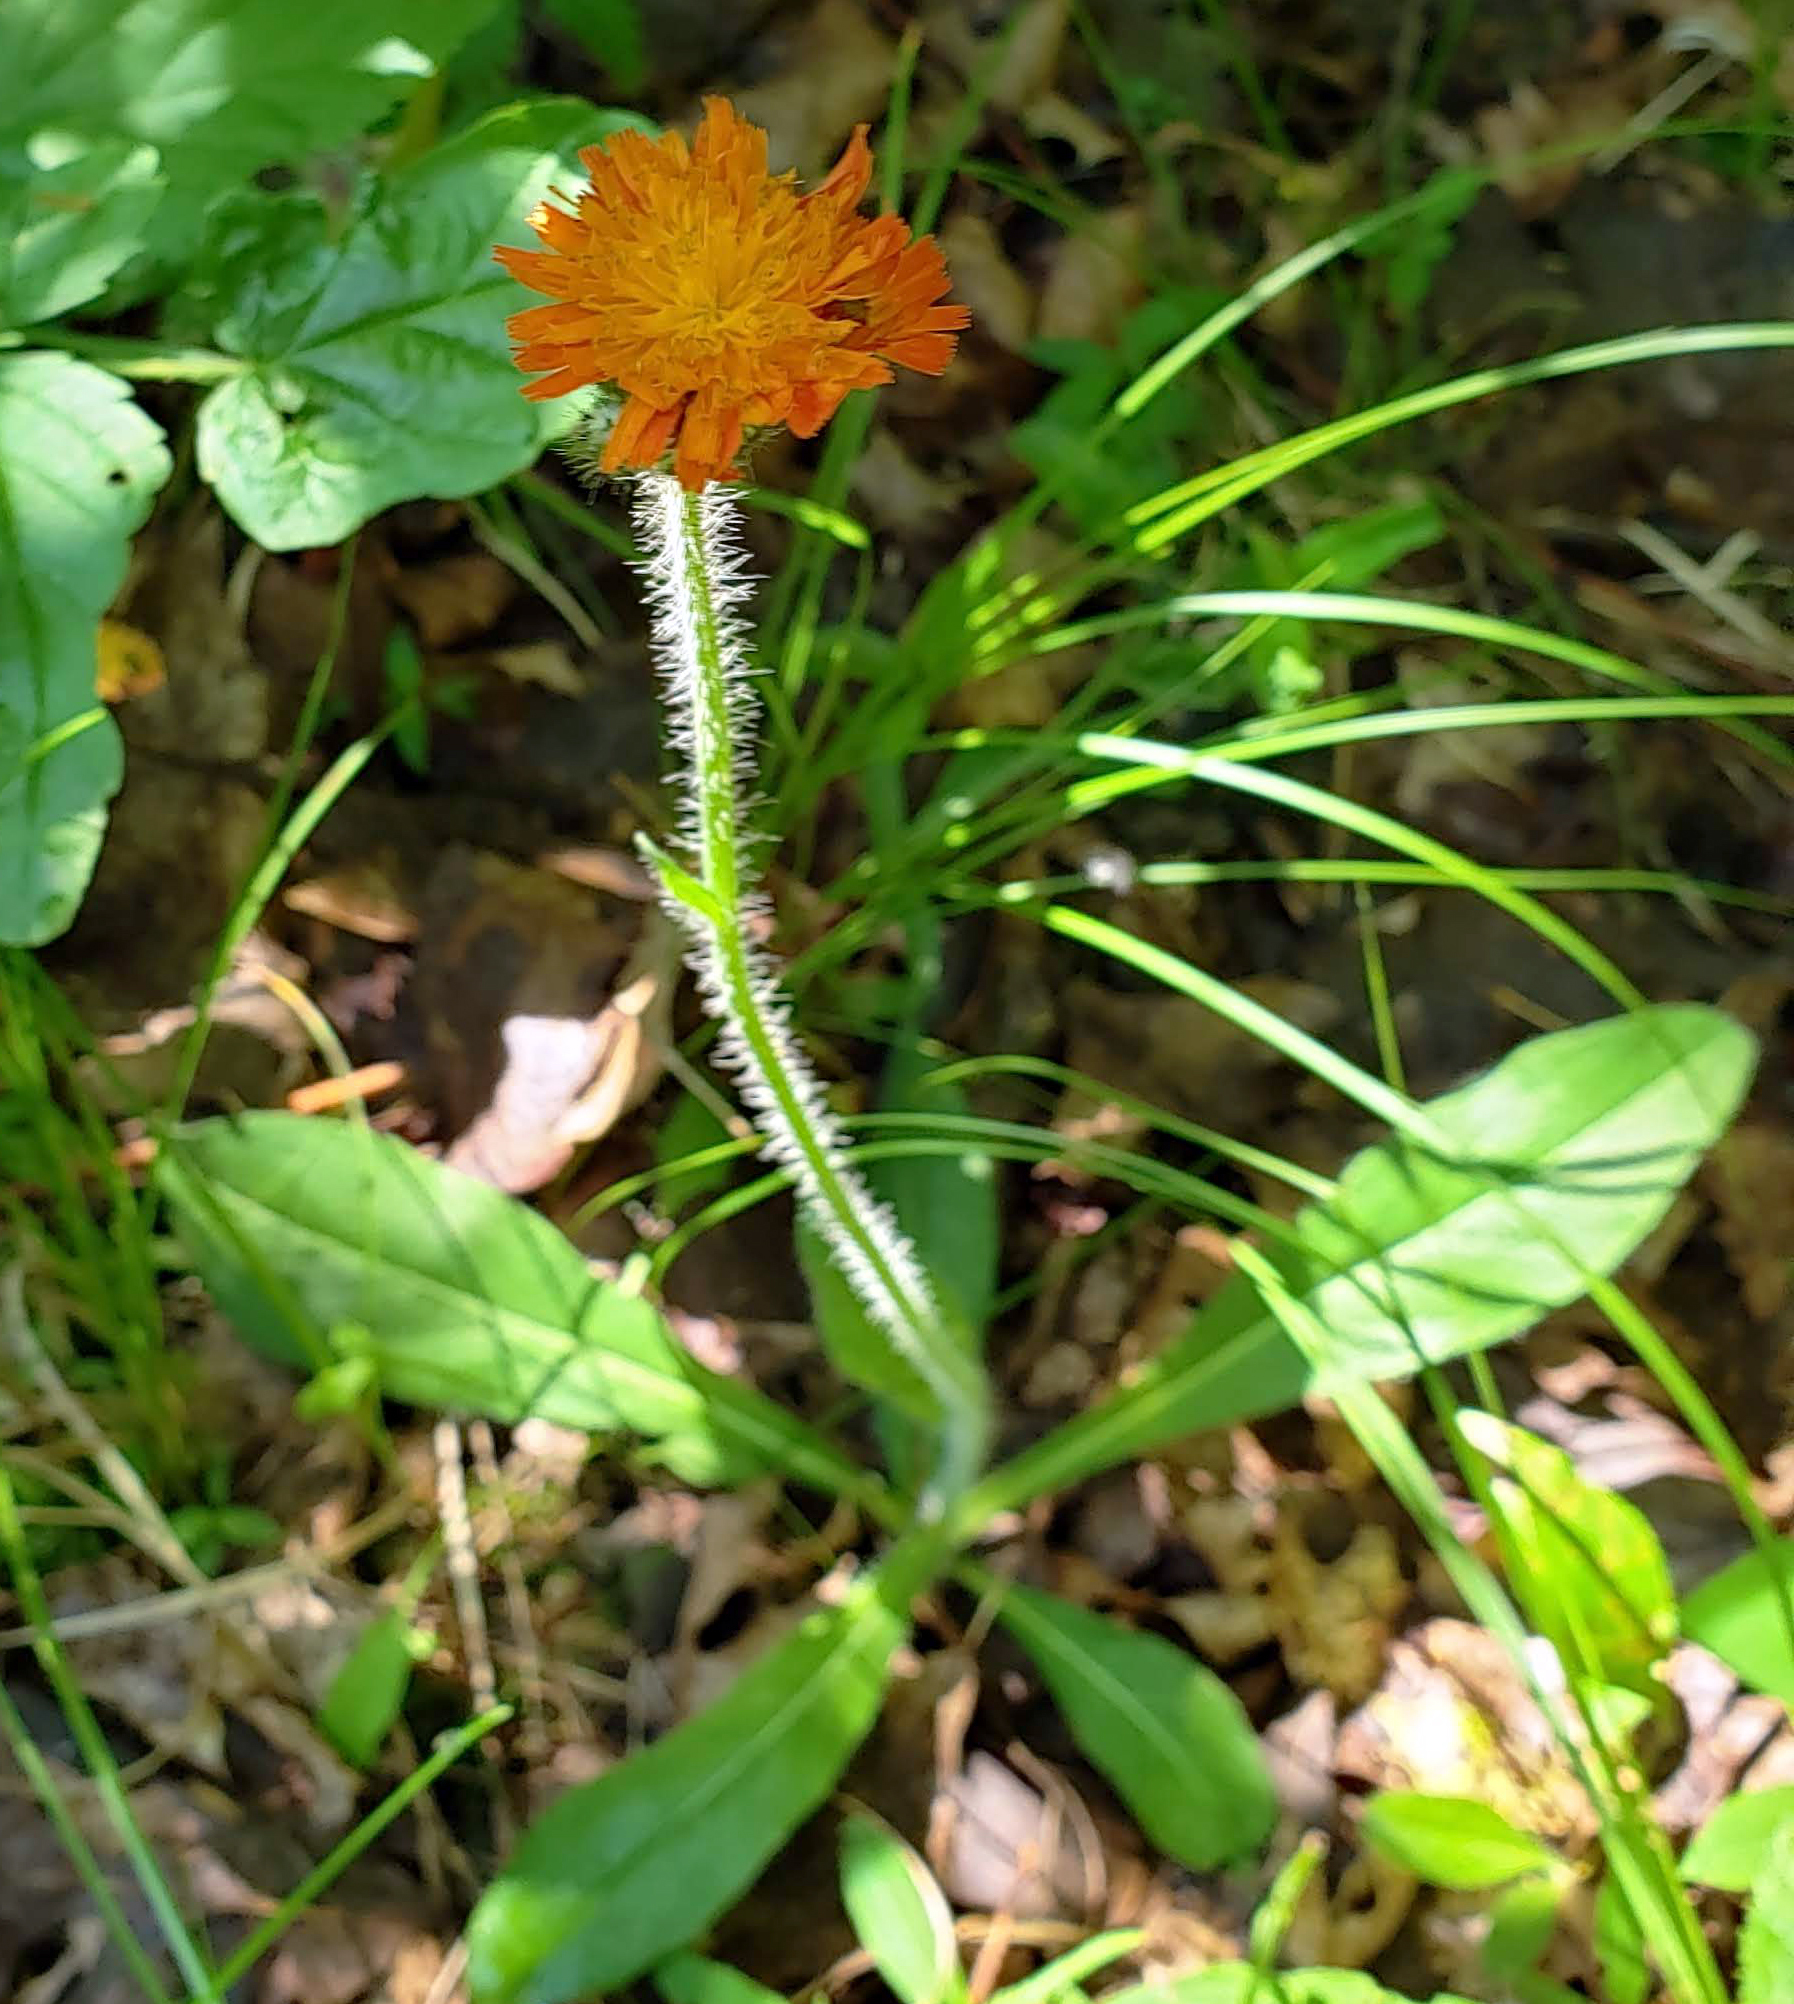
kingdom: Plantae
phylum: Tracheophyta
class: Magnoliopsida
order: Asterales
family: Asteraceae
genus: Pilosella
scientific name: Pilosella aurantiaca
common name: Fox-and-cubs
